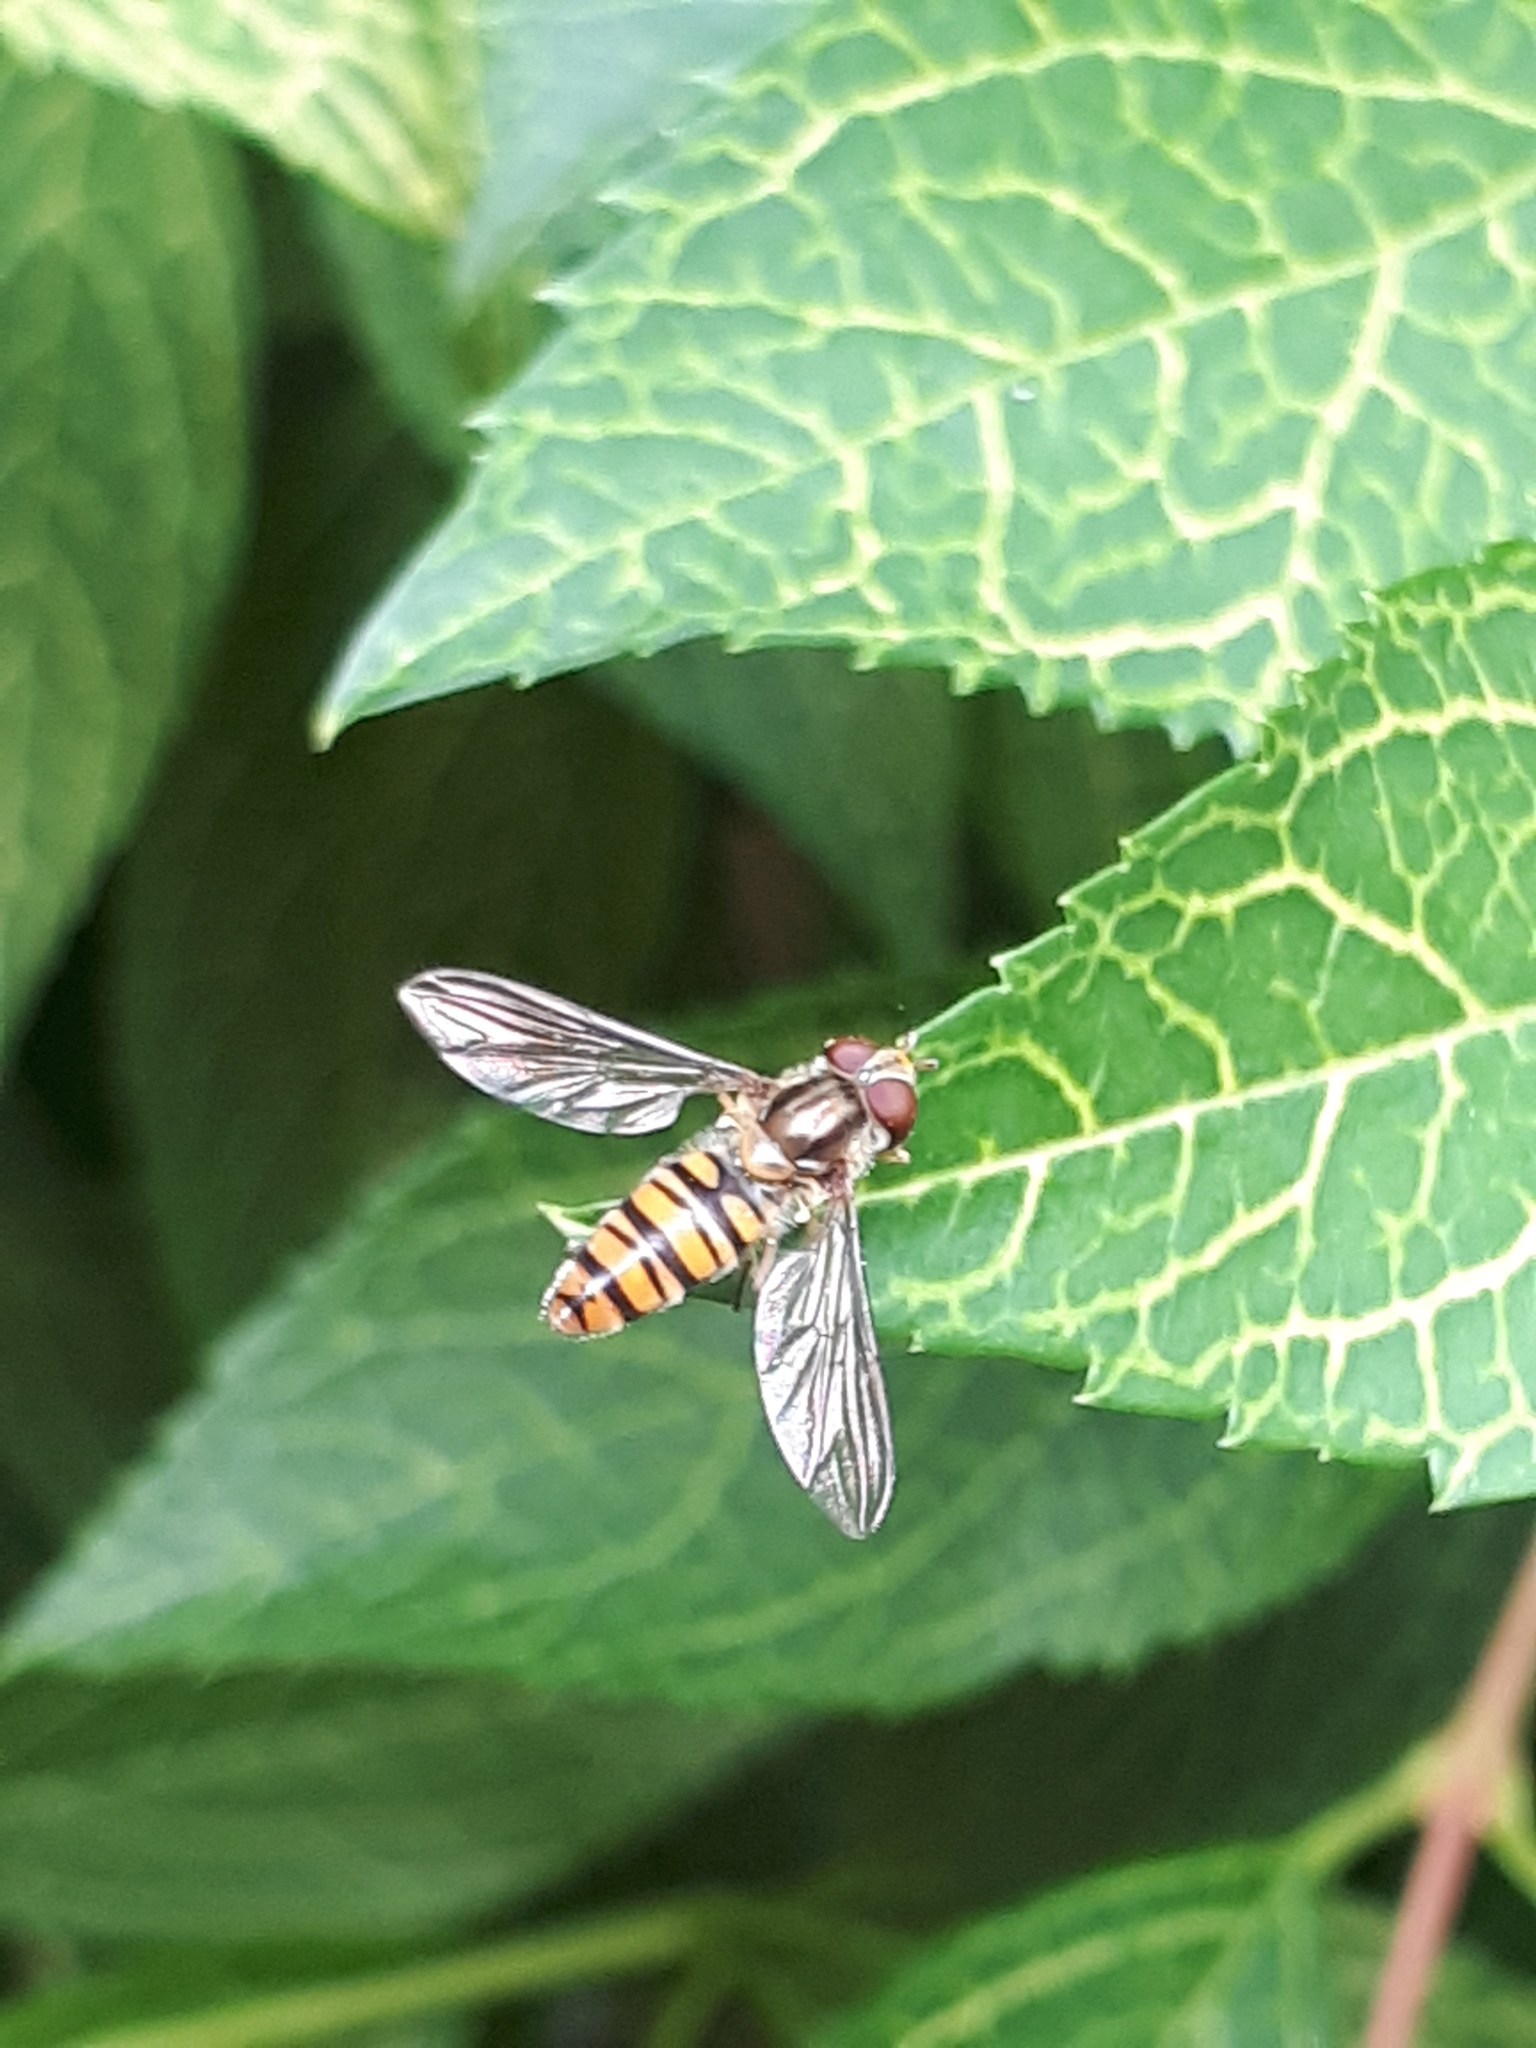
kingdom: Animalia
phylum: Arthropoda
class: Insecta
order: Diptera
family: Syrphidae
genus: Episyrphus
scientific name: Episyrphus balteatus
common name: Marmalade hoverfly
